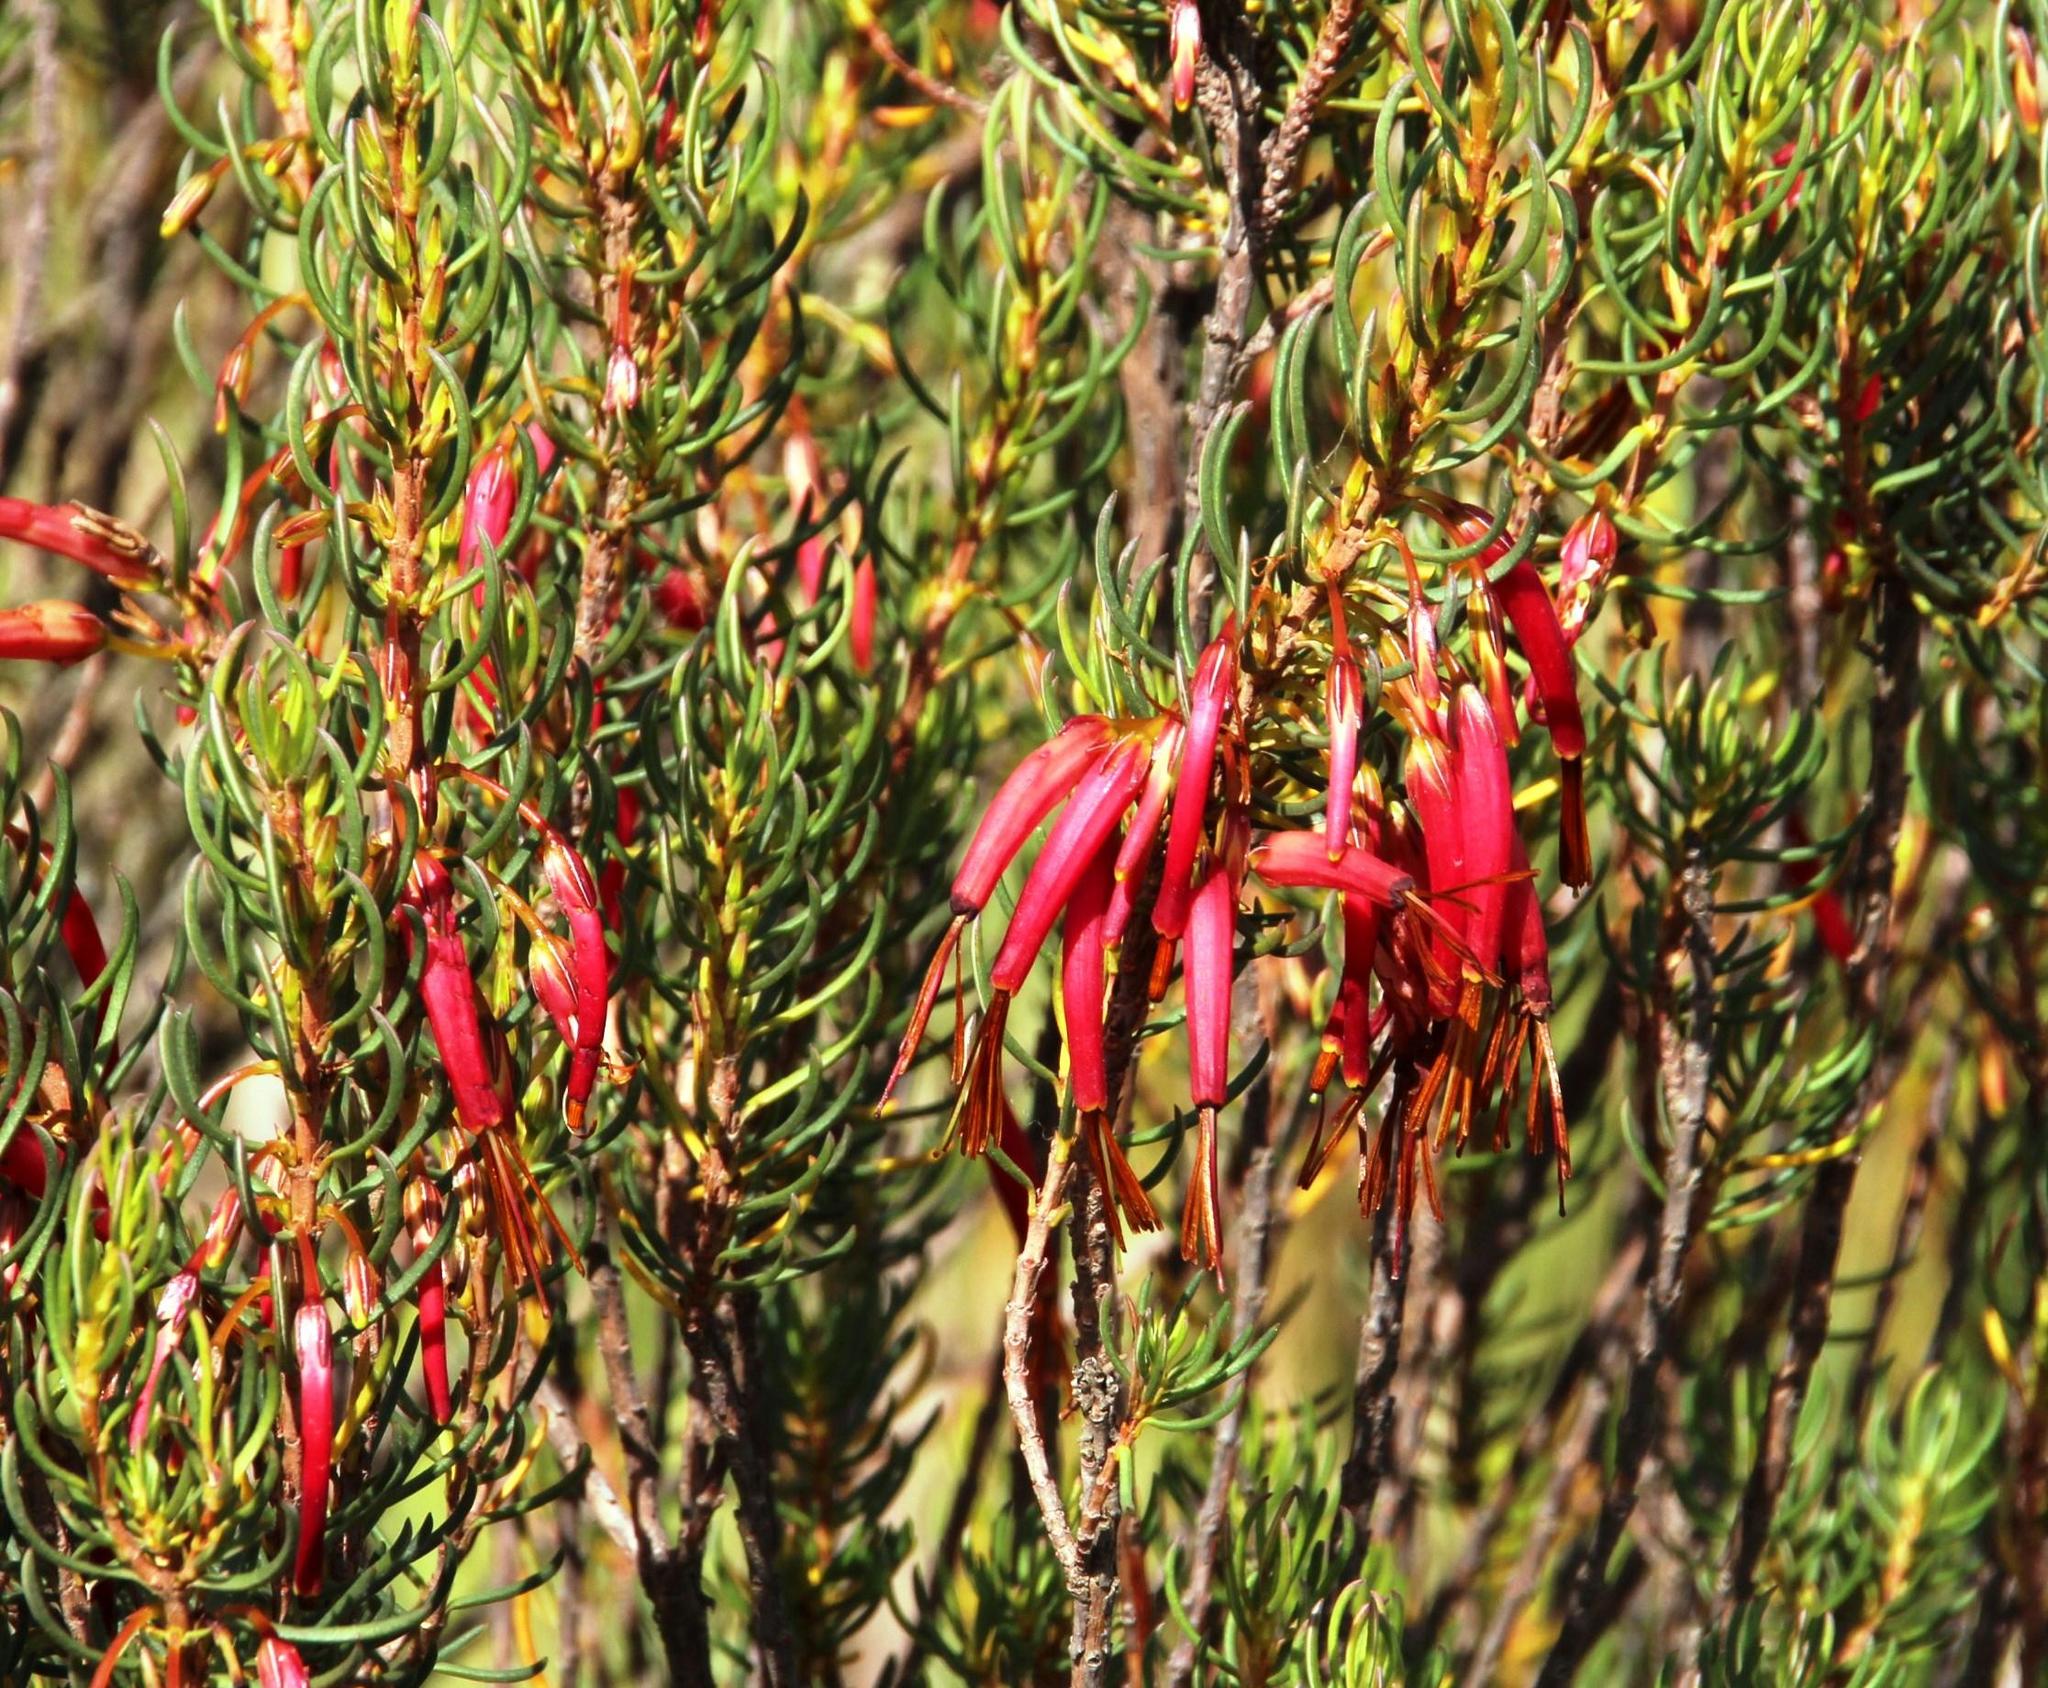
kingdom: Plantae
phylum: Tracheophyta
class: Magnoliopsida
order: Ericales
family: Ericaceae
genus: Erica
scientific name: Erica plukenetii
